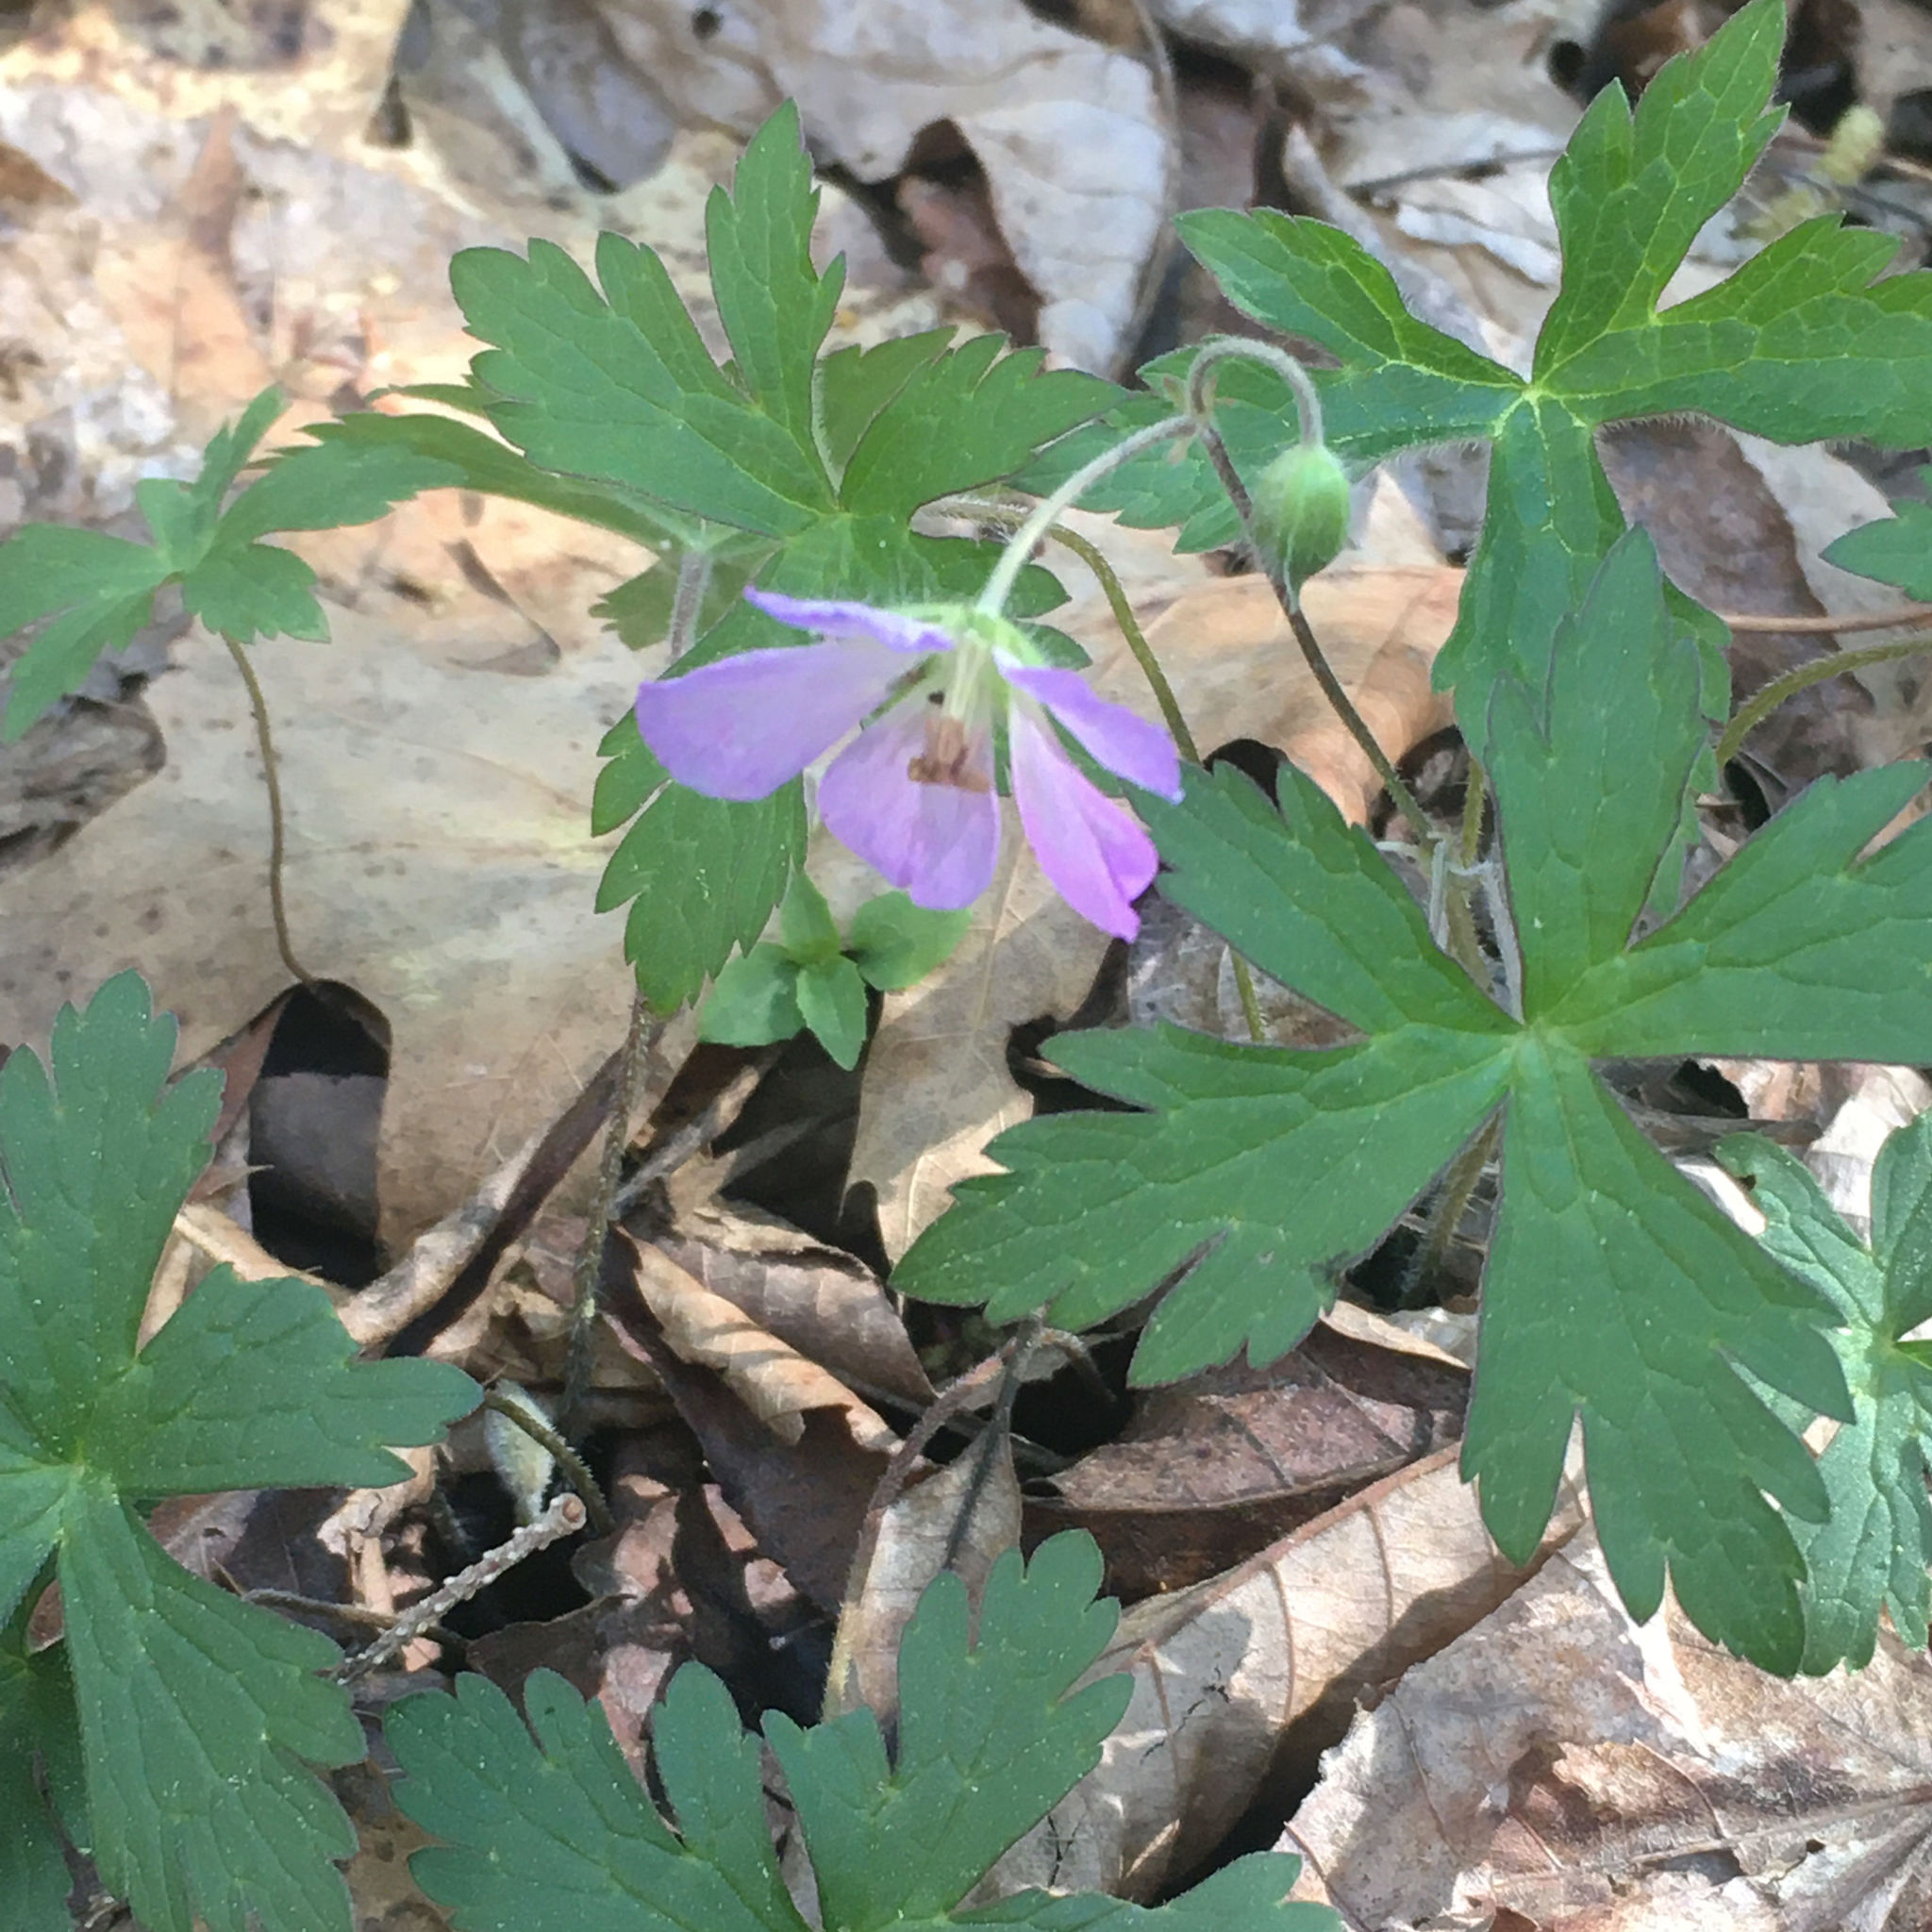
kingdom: Plantae
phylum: Tracheophyta
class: Magnoliopsida
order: Geraniales
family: Geraniaceae
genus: Geranium
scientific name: Geranium maculatum
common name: Spotted geranium
